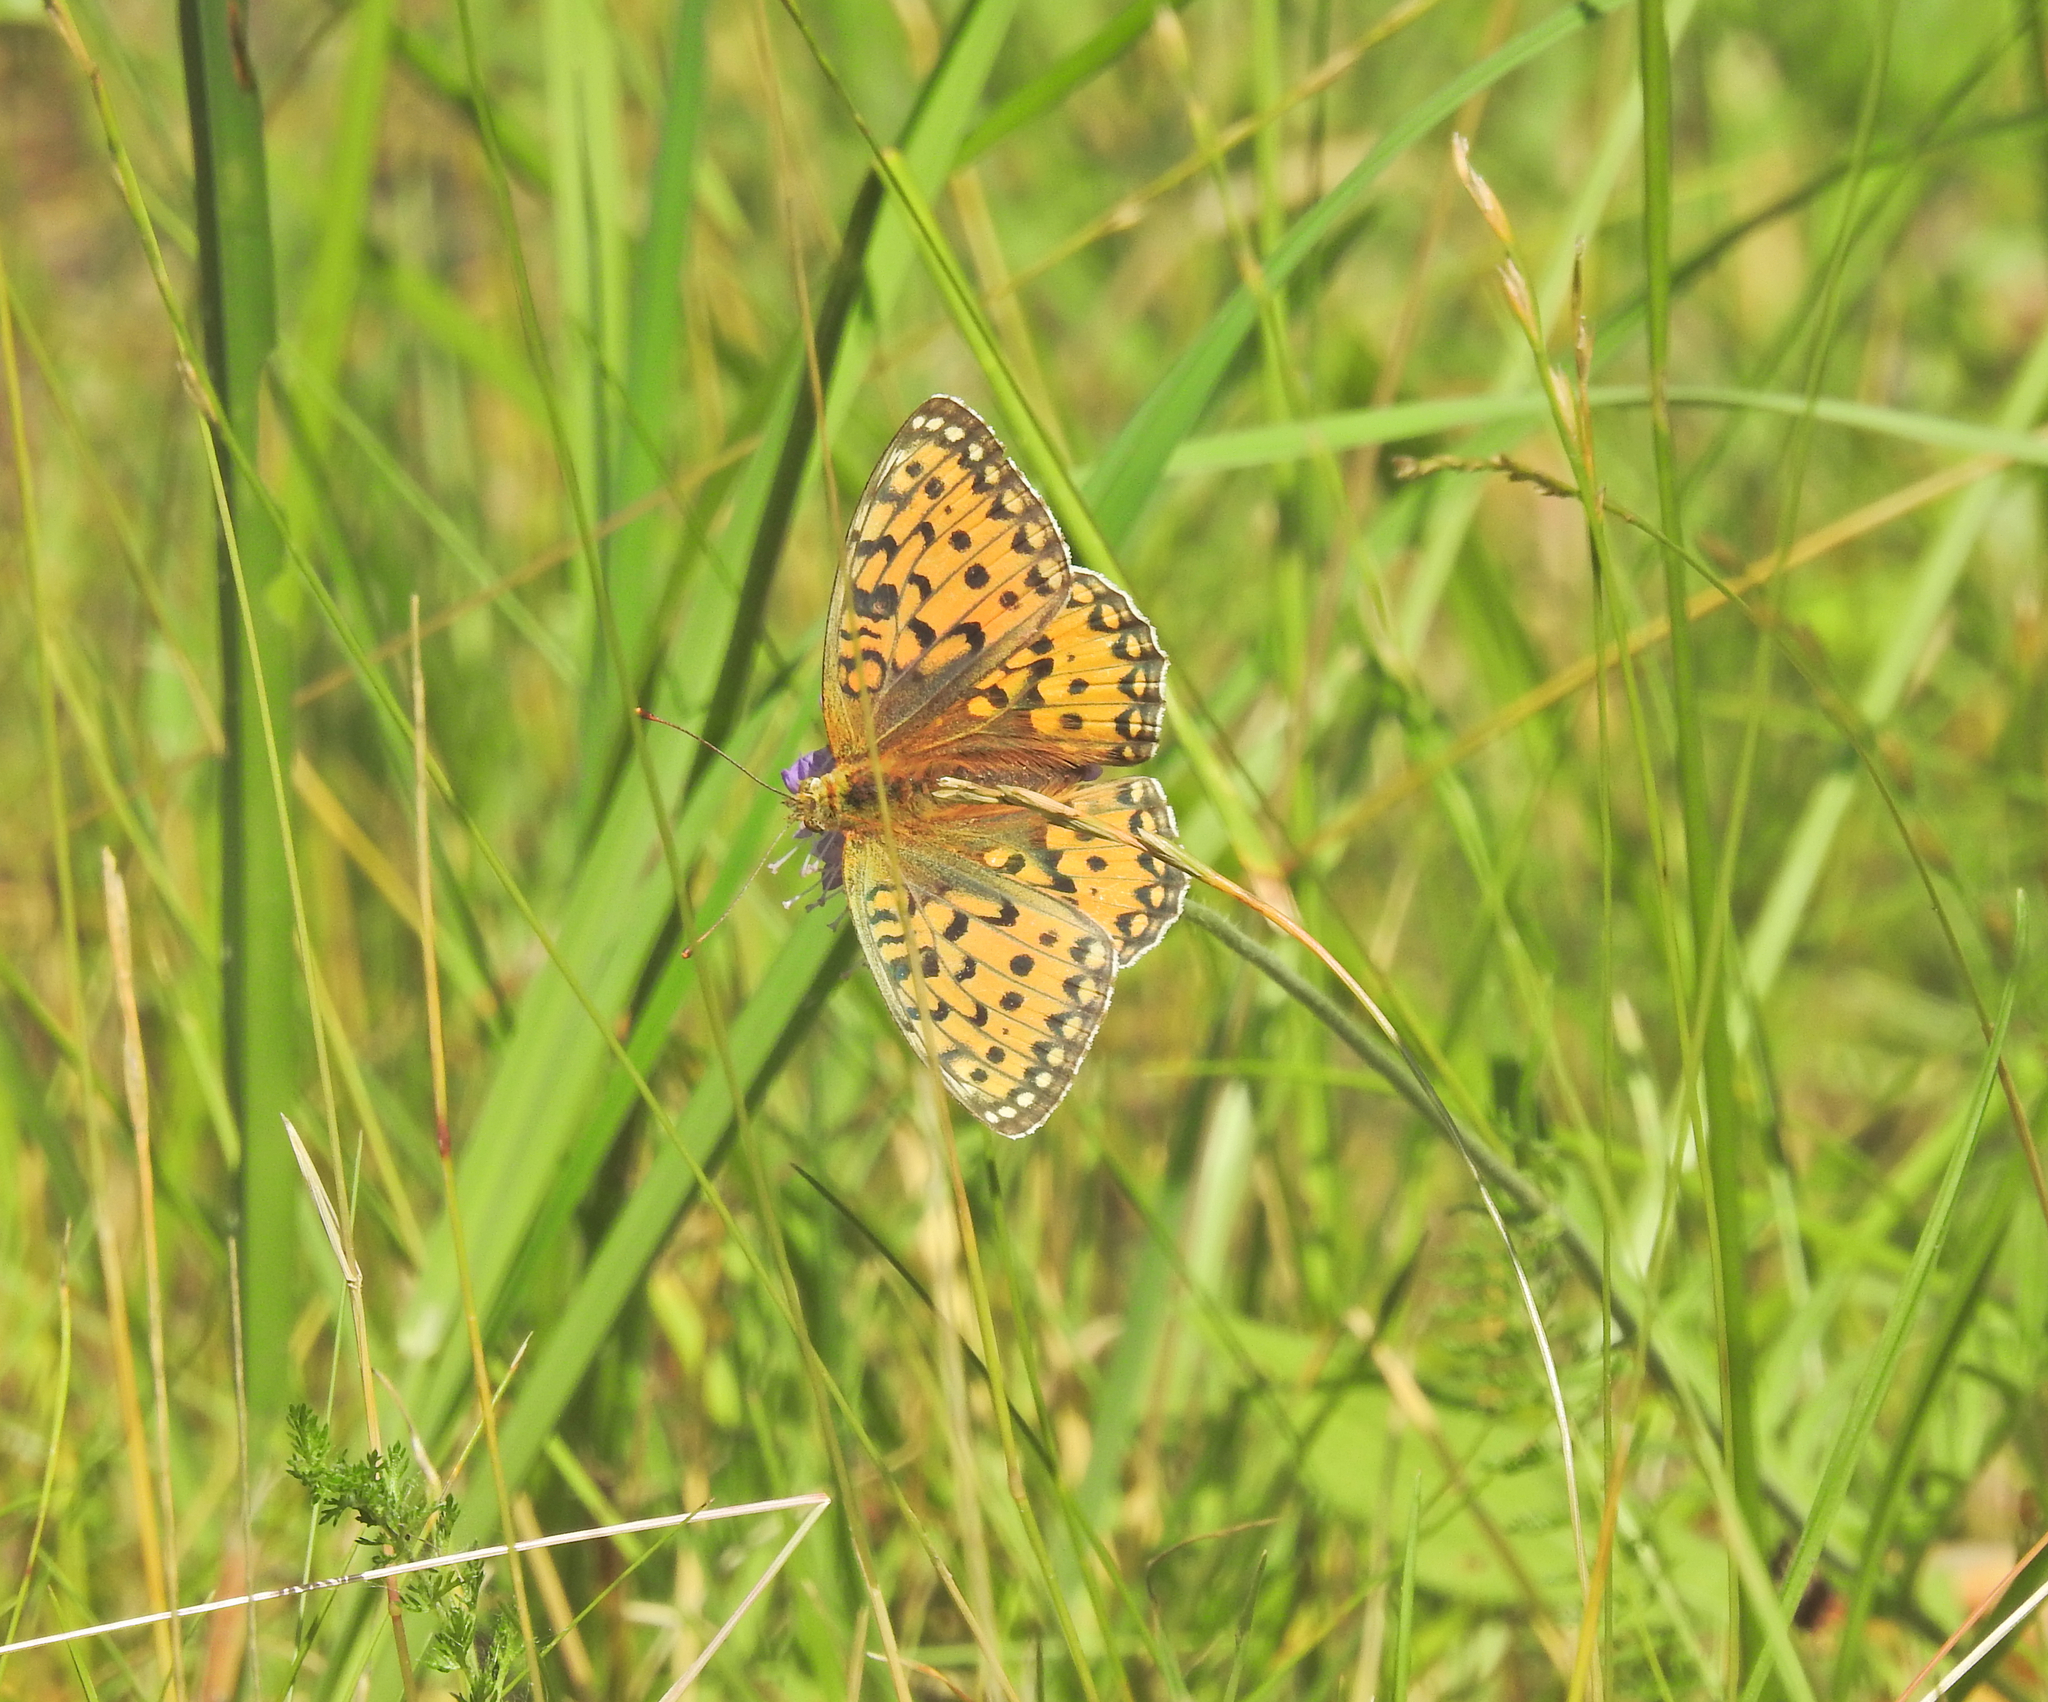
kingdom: Animalia
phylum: Arthropoda
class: Insecta
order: Lepidoptera
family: Nymphalidae
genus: Speyeria
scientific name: Speyeria aglaja
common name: Dark green fritillary
